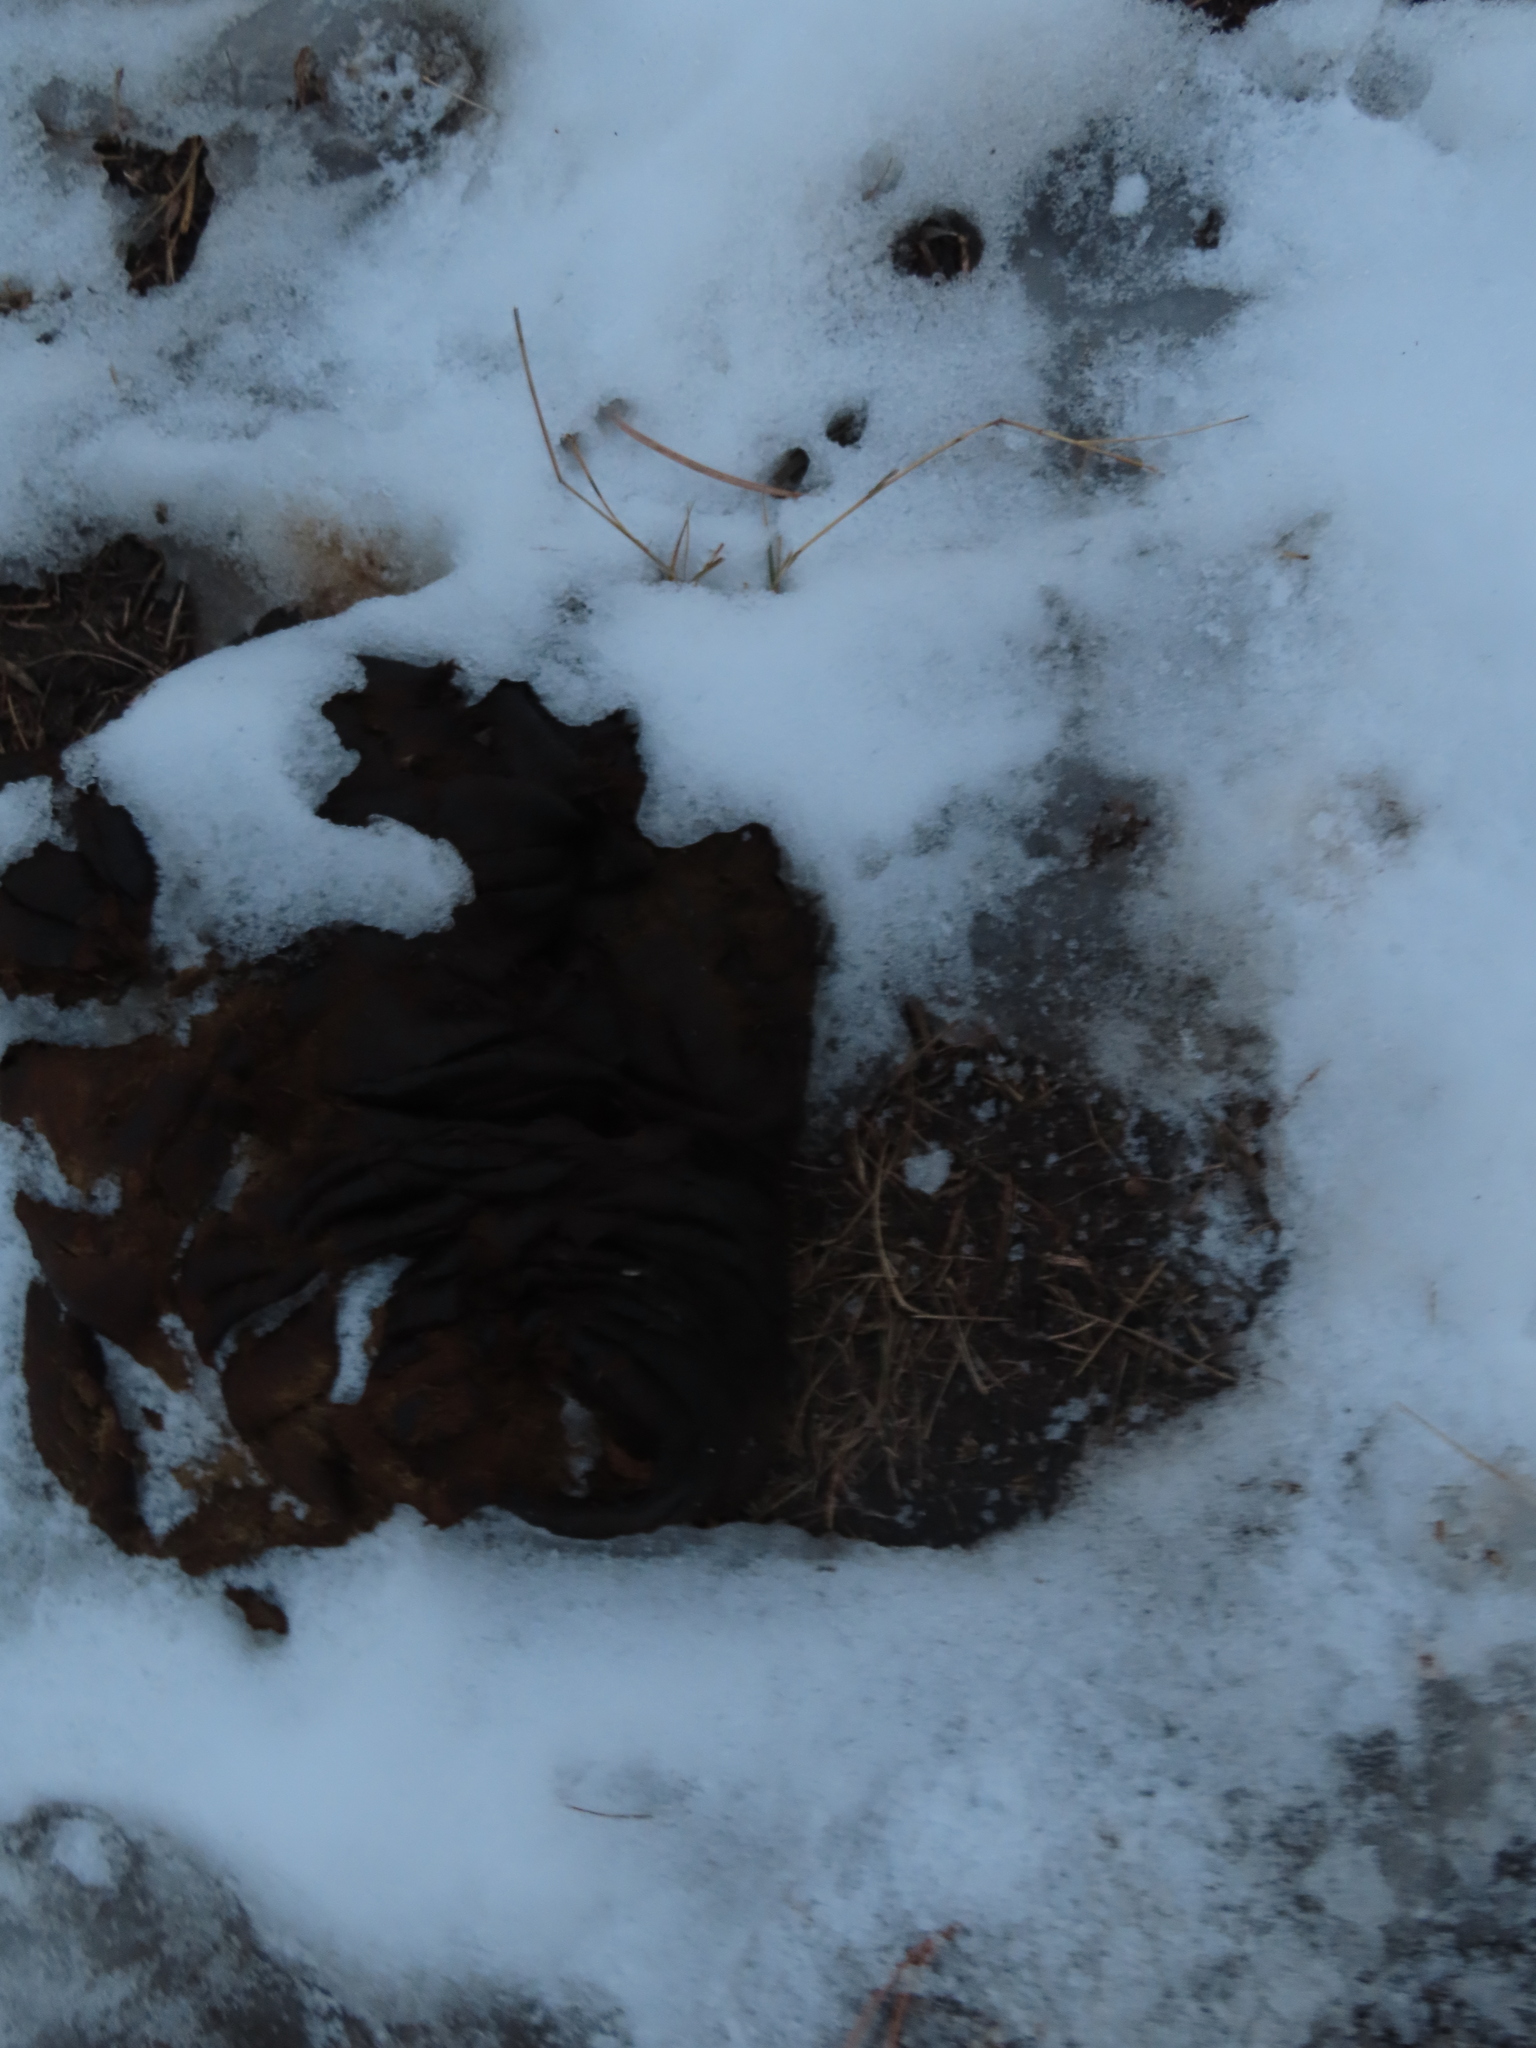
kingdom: Animalia
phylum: Chordata
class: Mammalia
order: Artiodactyla
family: Bovidae
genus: Bison
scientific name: Bison bison
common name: American bison
